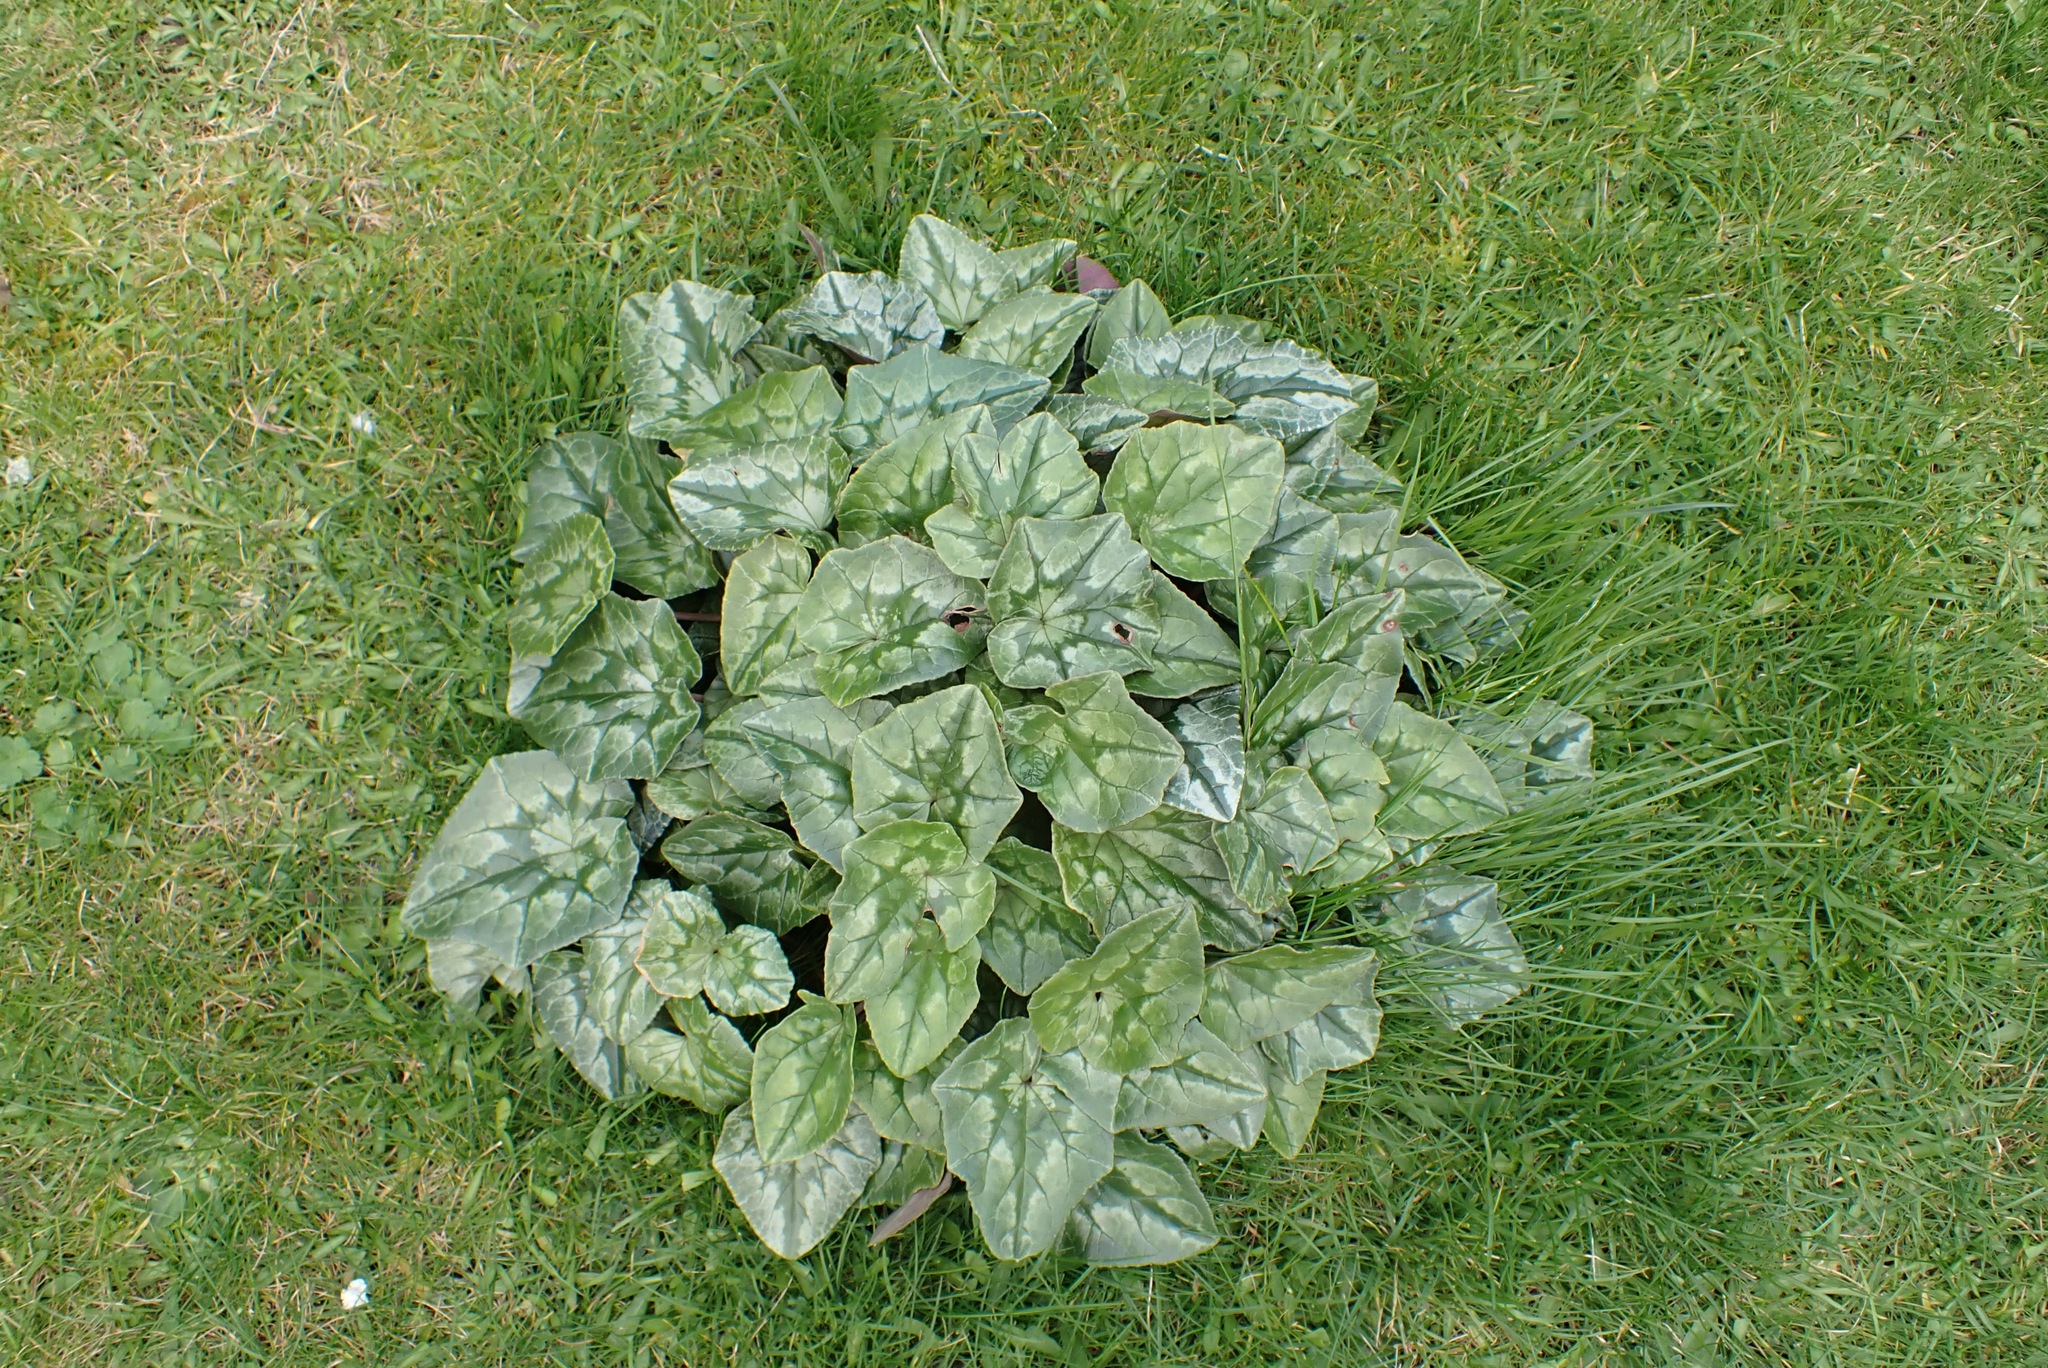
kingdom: Plantae
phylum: Tracheophyta
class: Magnoliopsida
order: Ericales
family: Primulaceae
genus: Cyclamen
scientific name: Cyclamen hederifolium
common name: Sowbread
